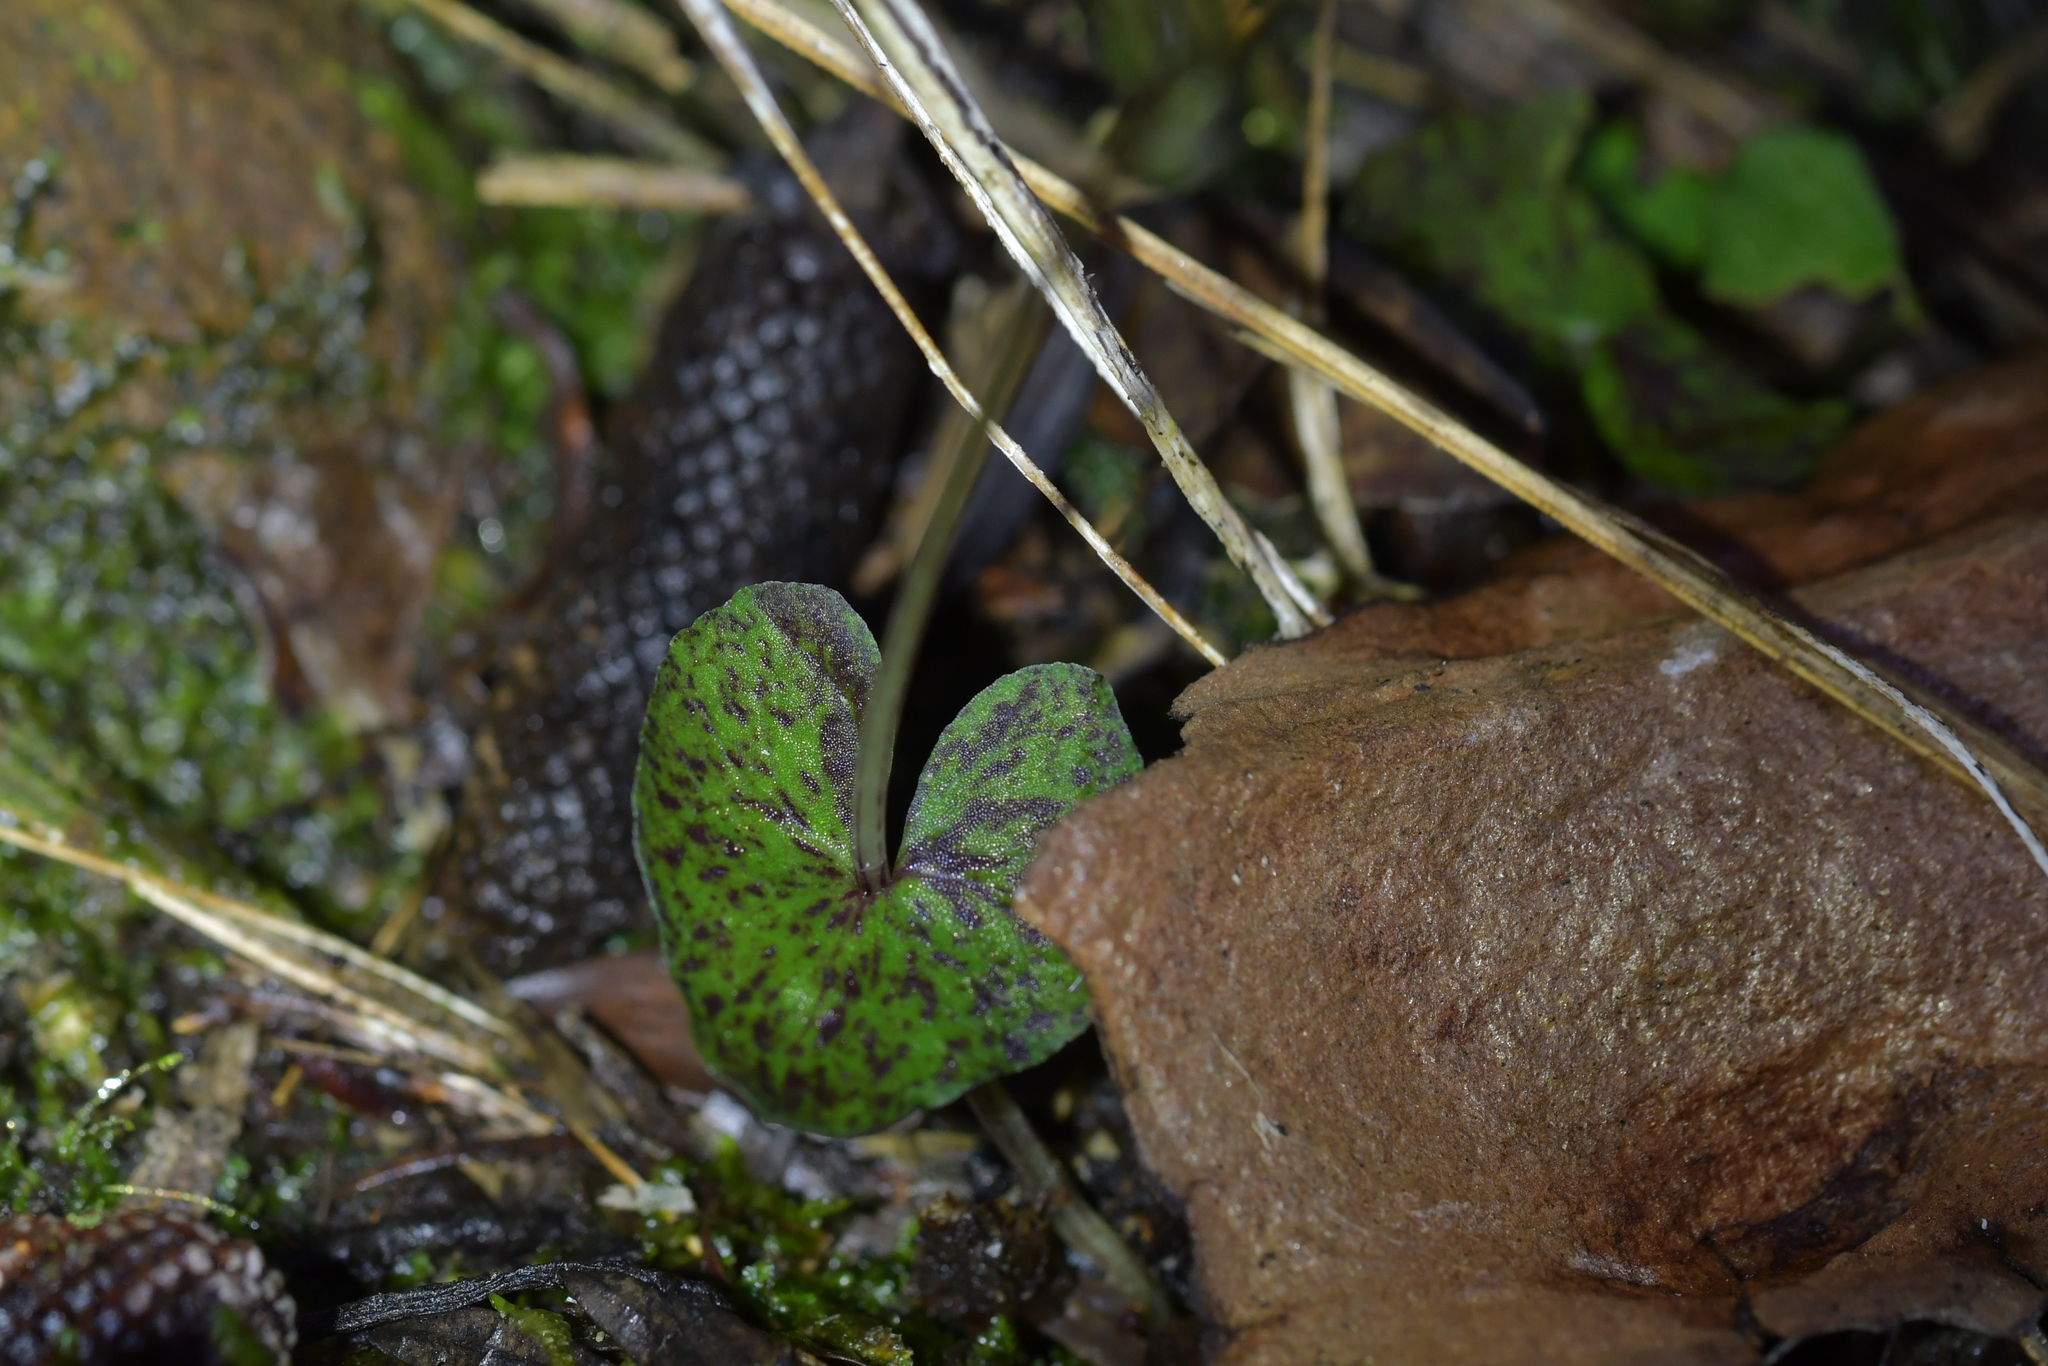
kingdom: Plantae
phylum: Tracheophyta
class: Liliopsida
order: Asparagales
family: Orchidaceae
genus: Acianthus
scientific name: Acianthus sinclairii
